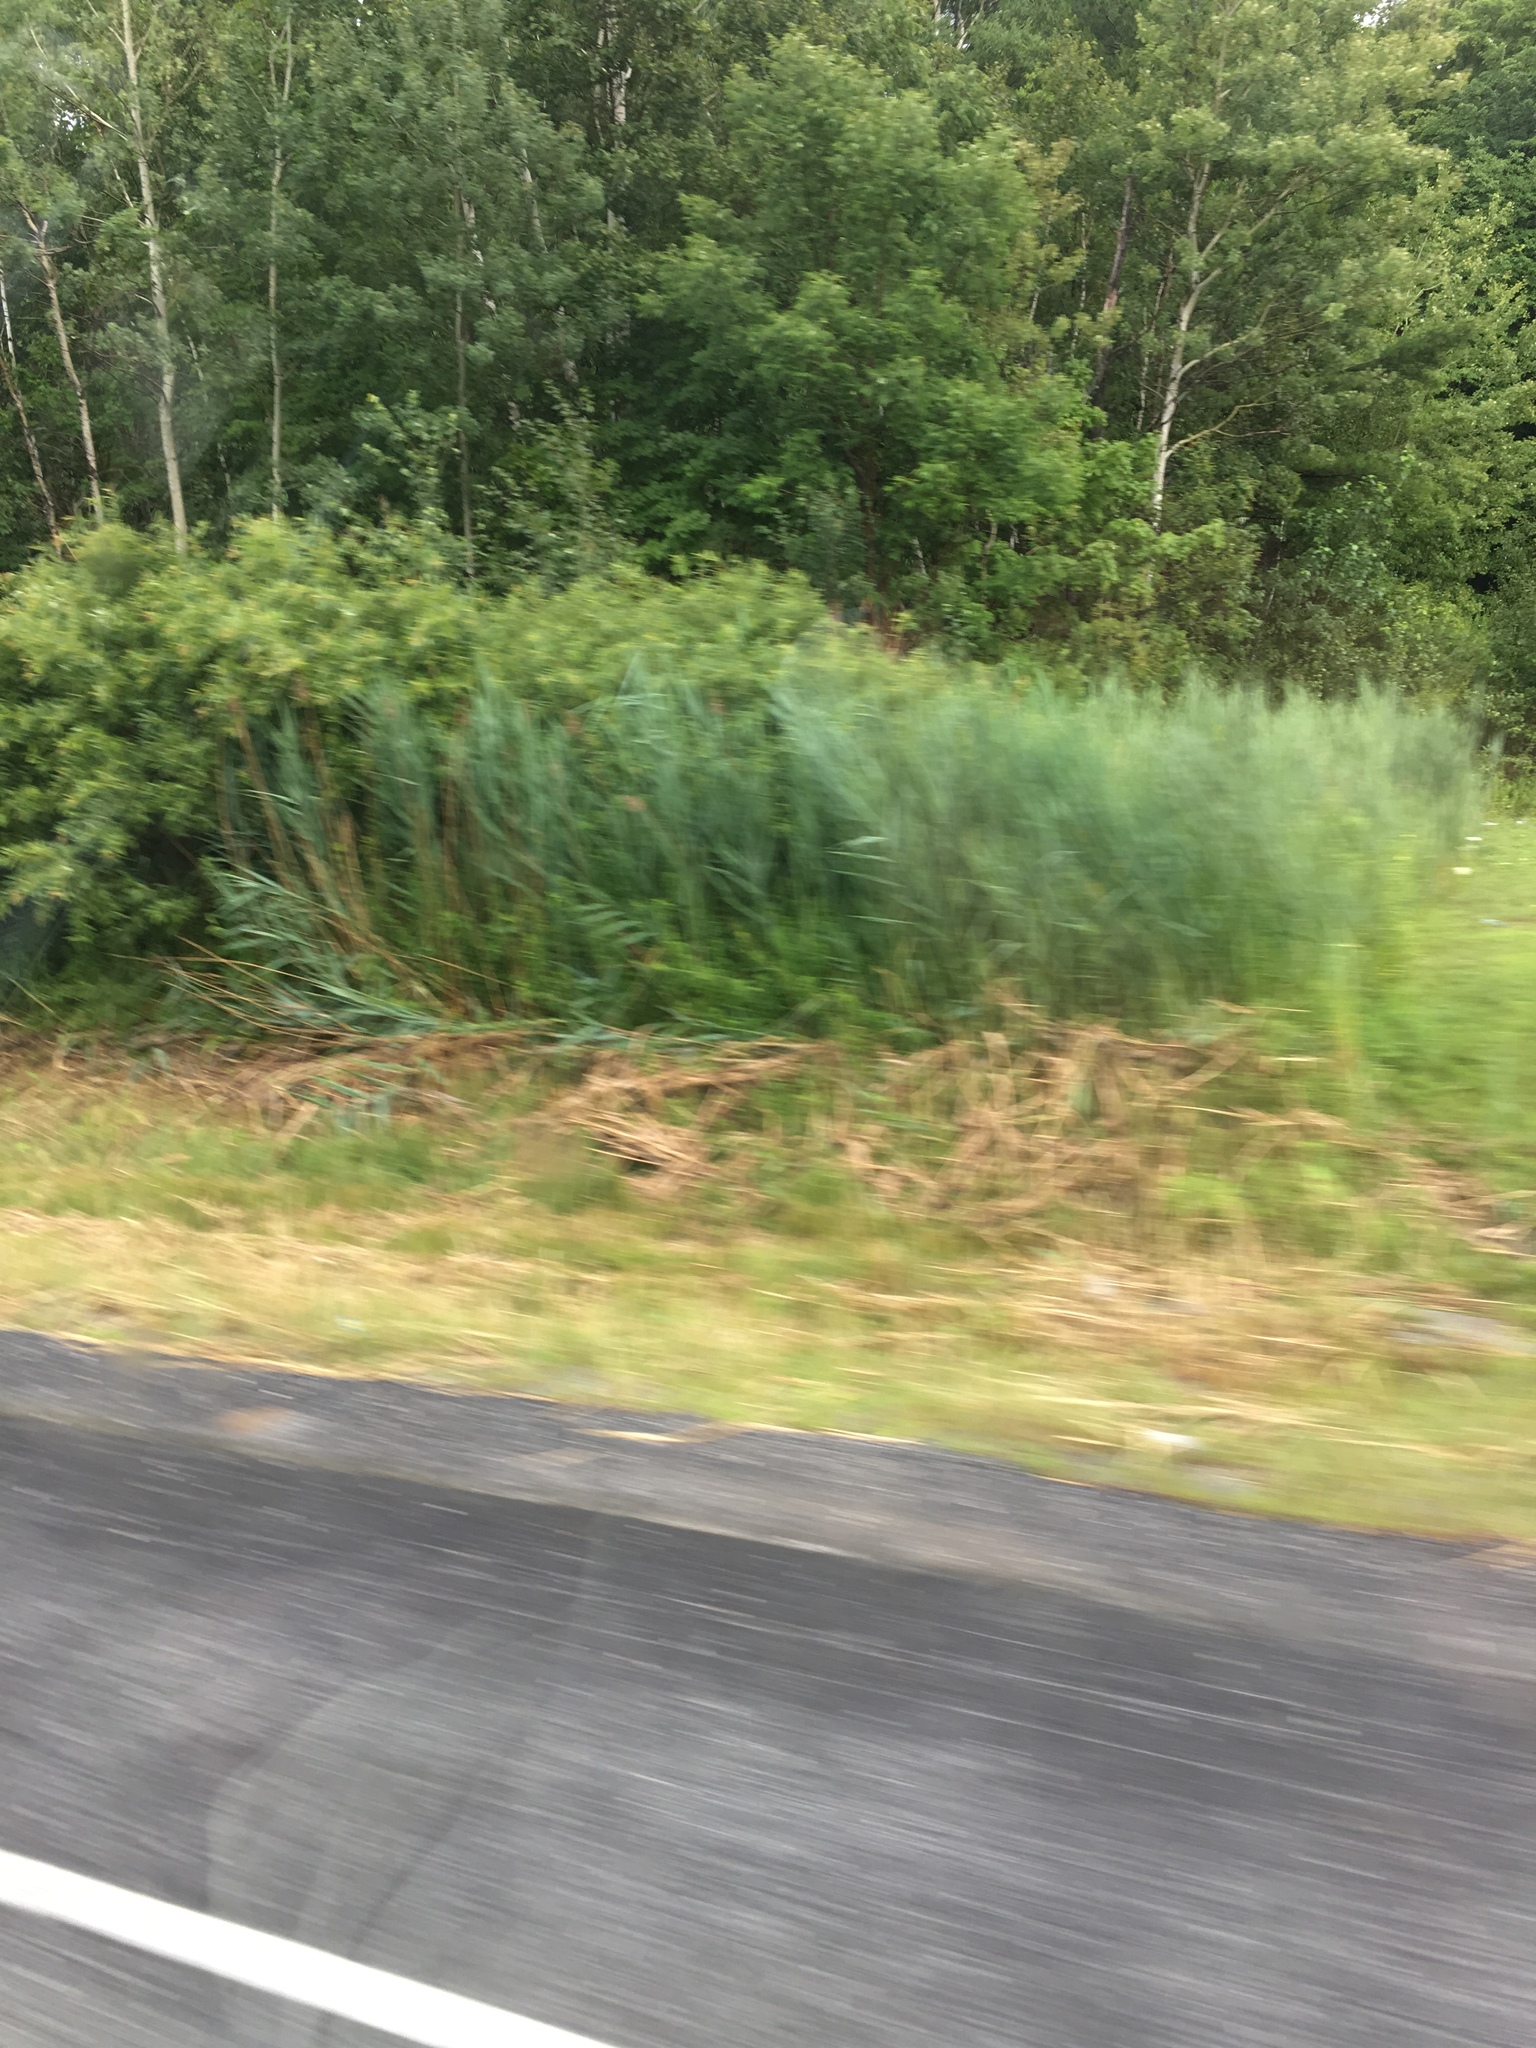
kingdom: Plantae
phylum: Tracheophyta
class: Liliopsida
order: Poales
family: Poaceae
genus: Phragmites
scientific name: Phragmites australis
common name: Common reed
